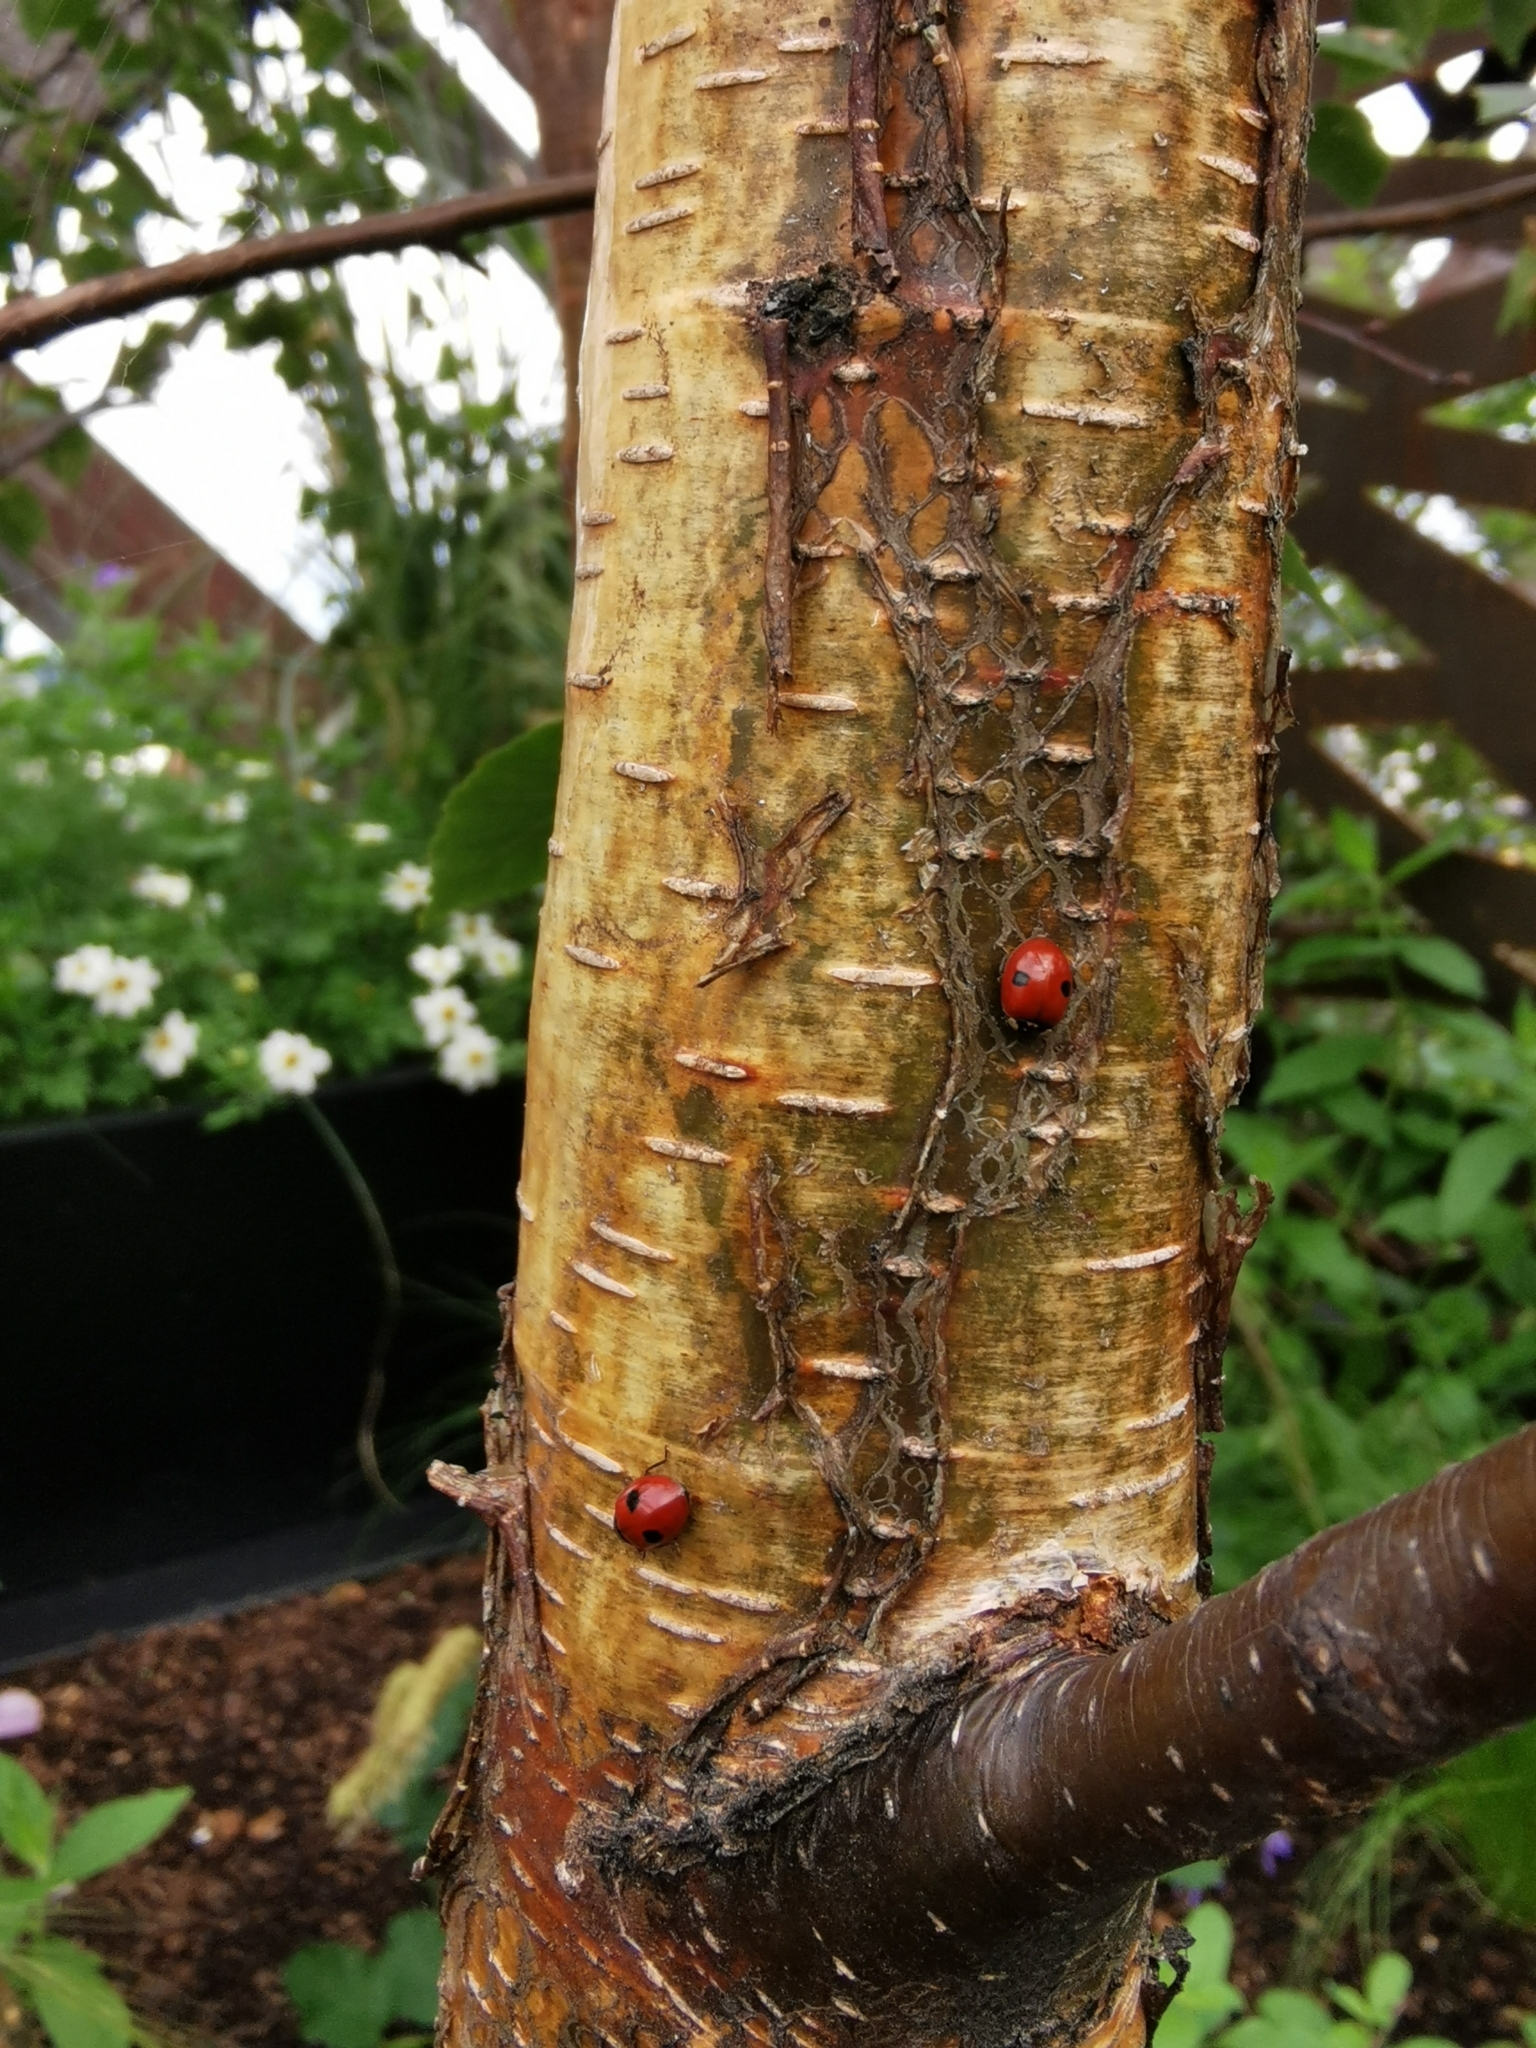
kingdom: Animalia
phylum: Arthropoda
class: Insecta
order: Coleoptera
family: Coccinellidae
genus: Adalia
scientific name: Adalia bipunctata
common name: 2-spot ladybird
